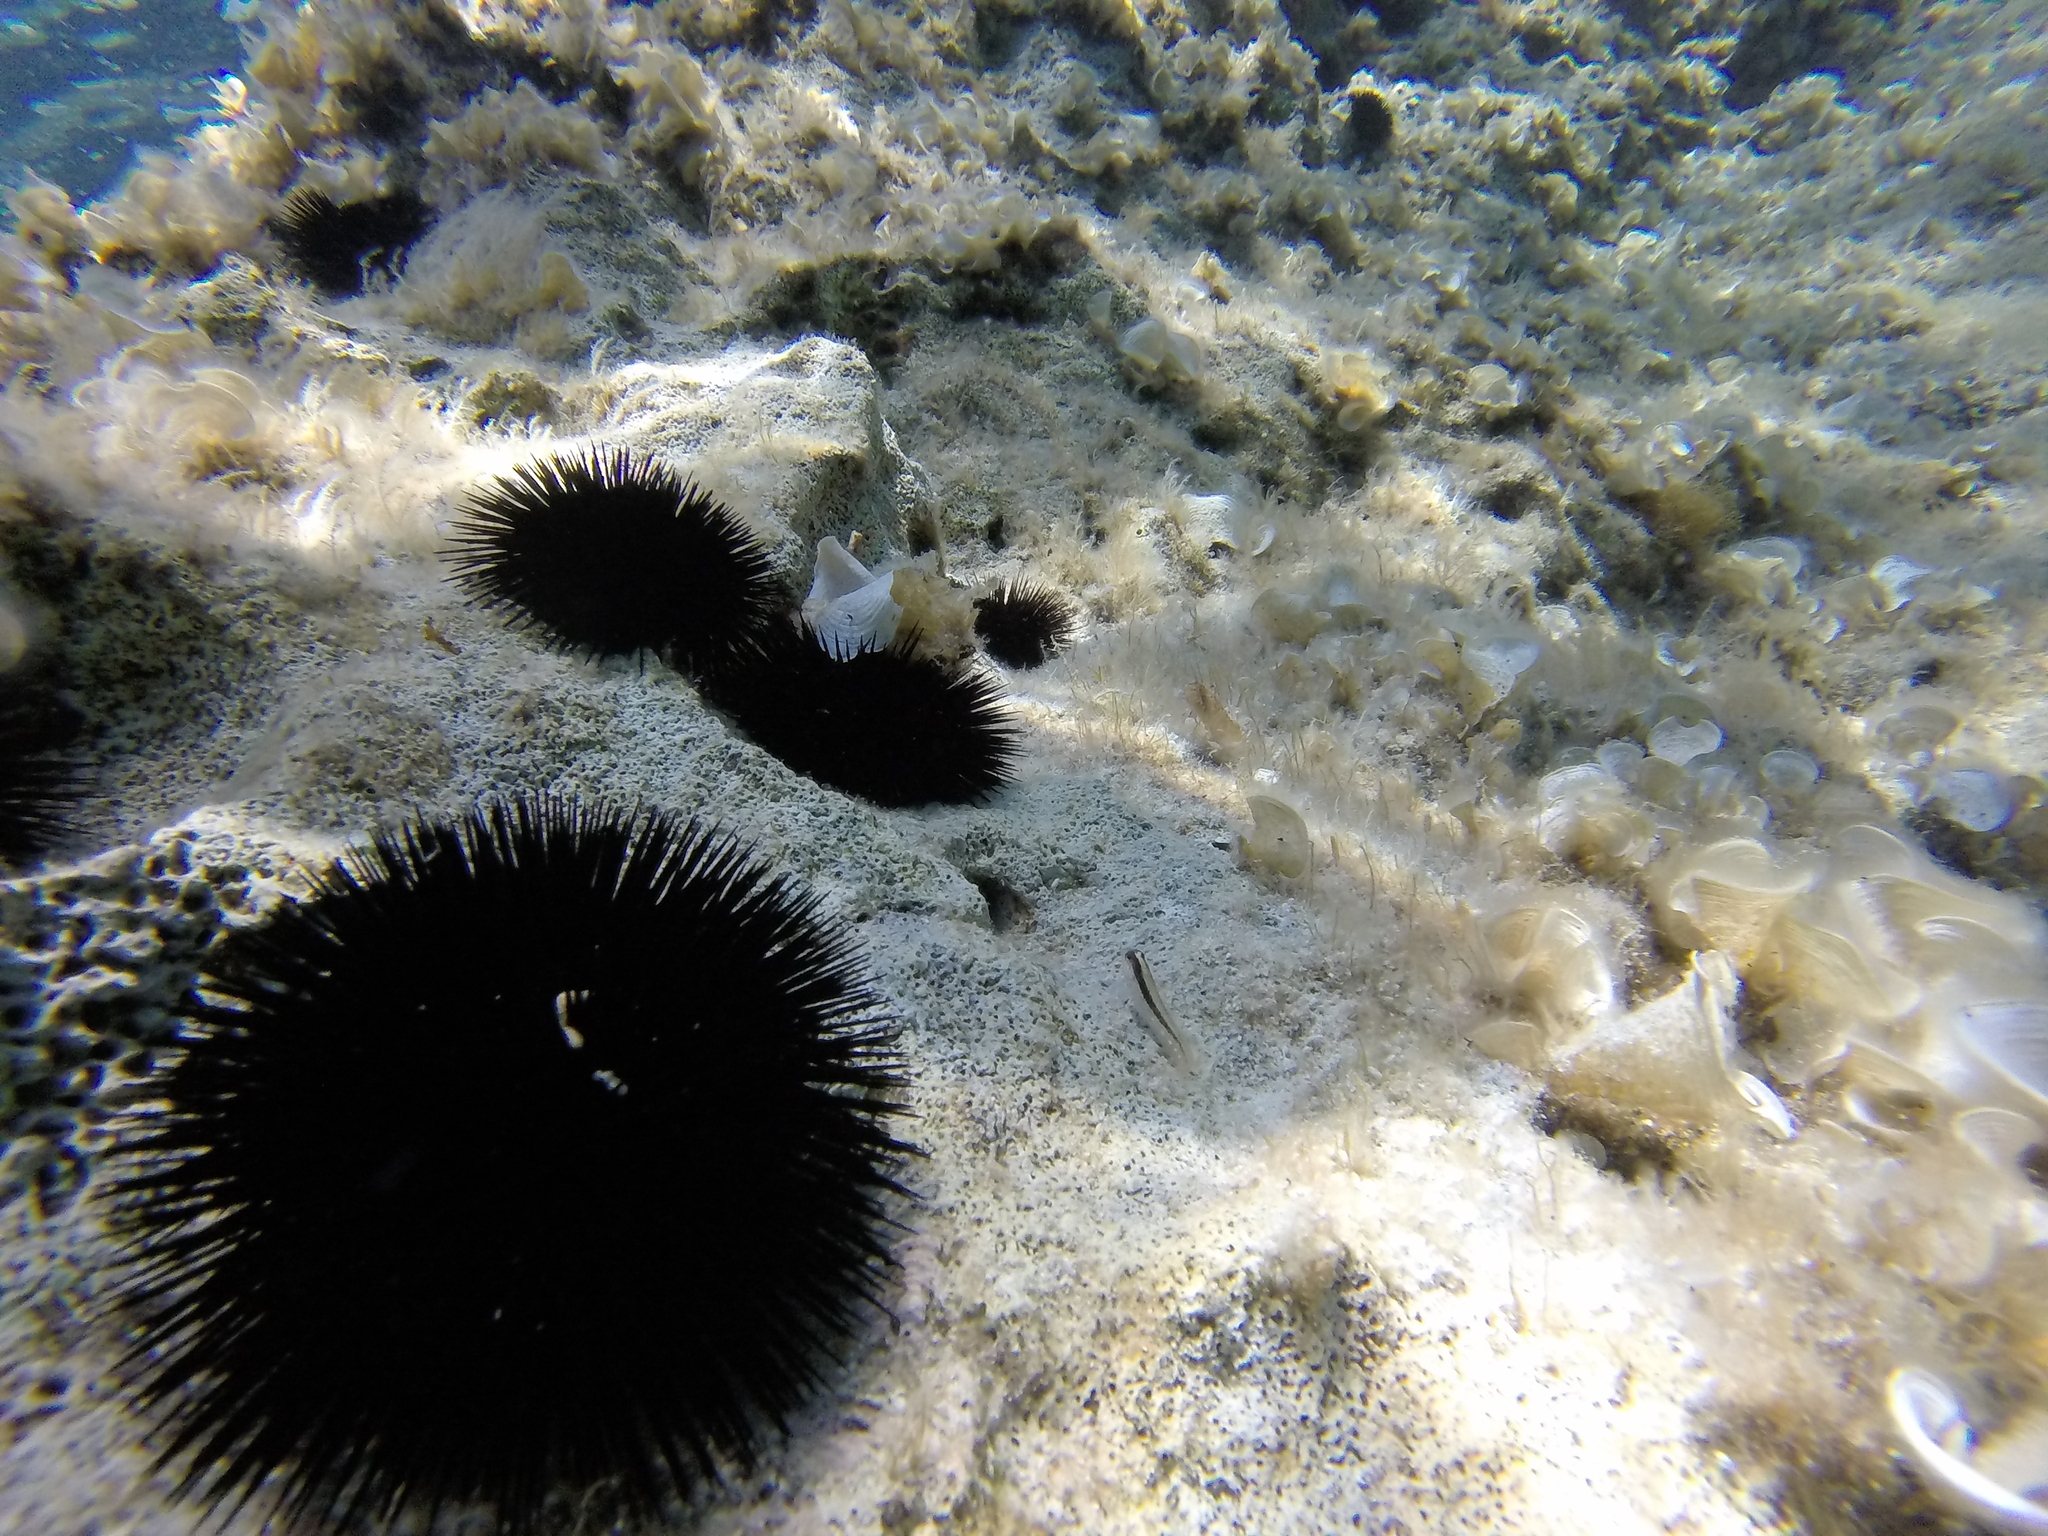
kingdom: Animalia
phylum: Chordata
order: Perciformes
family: Blenniidae
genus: Parablennius
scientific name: Parablennius rouxi
